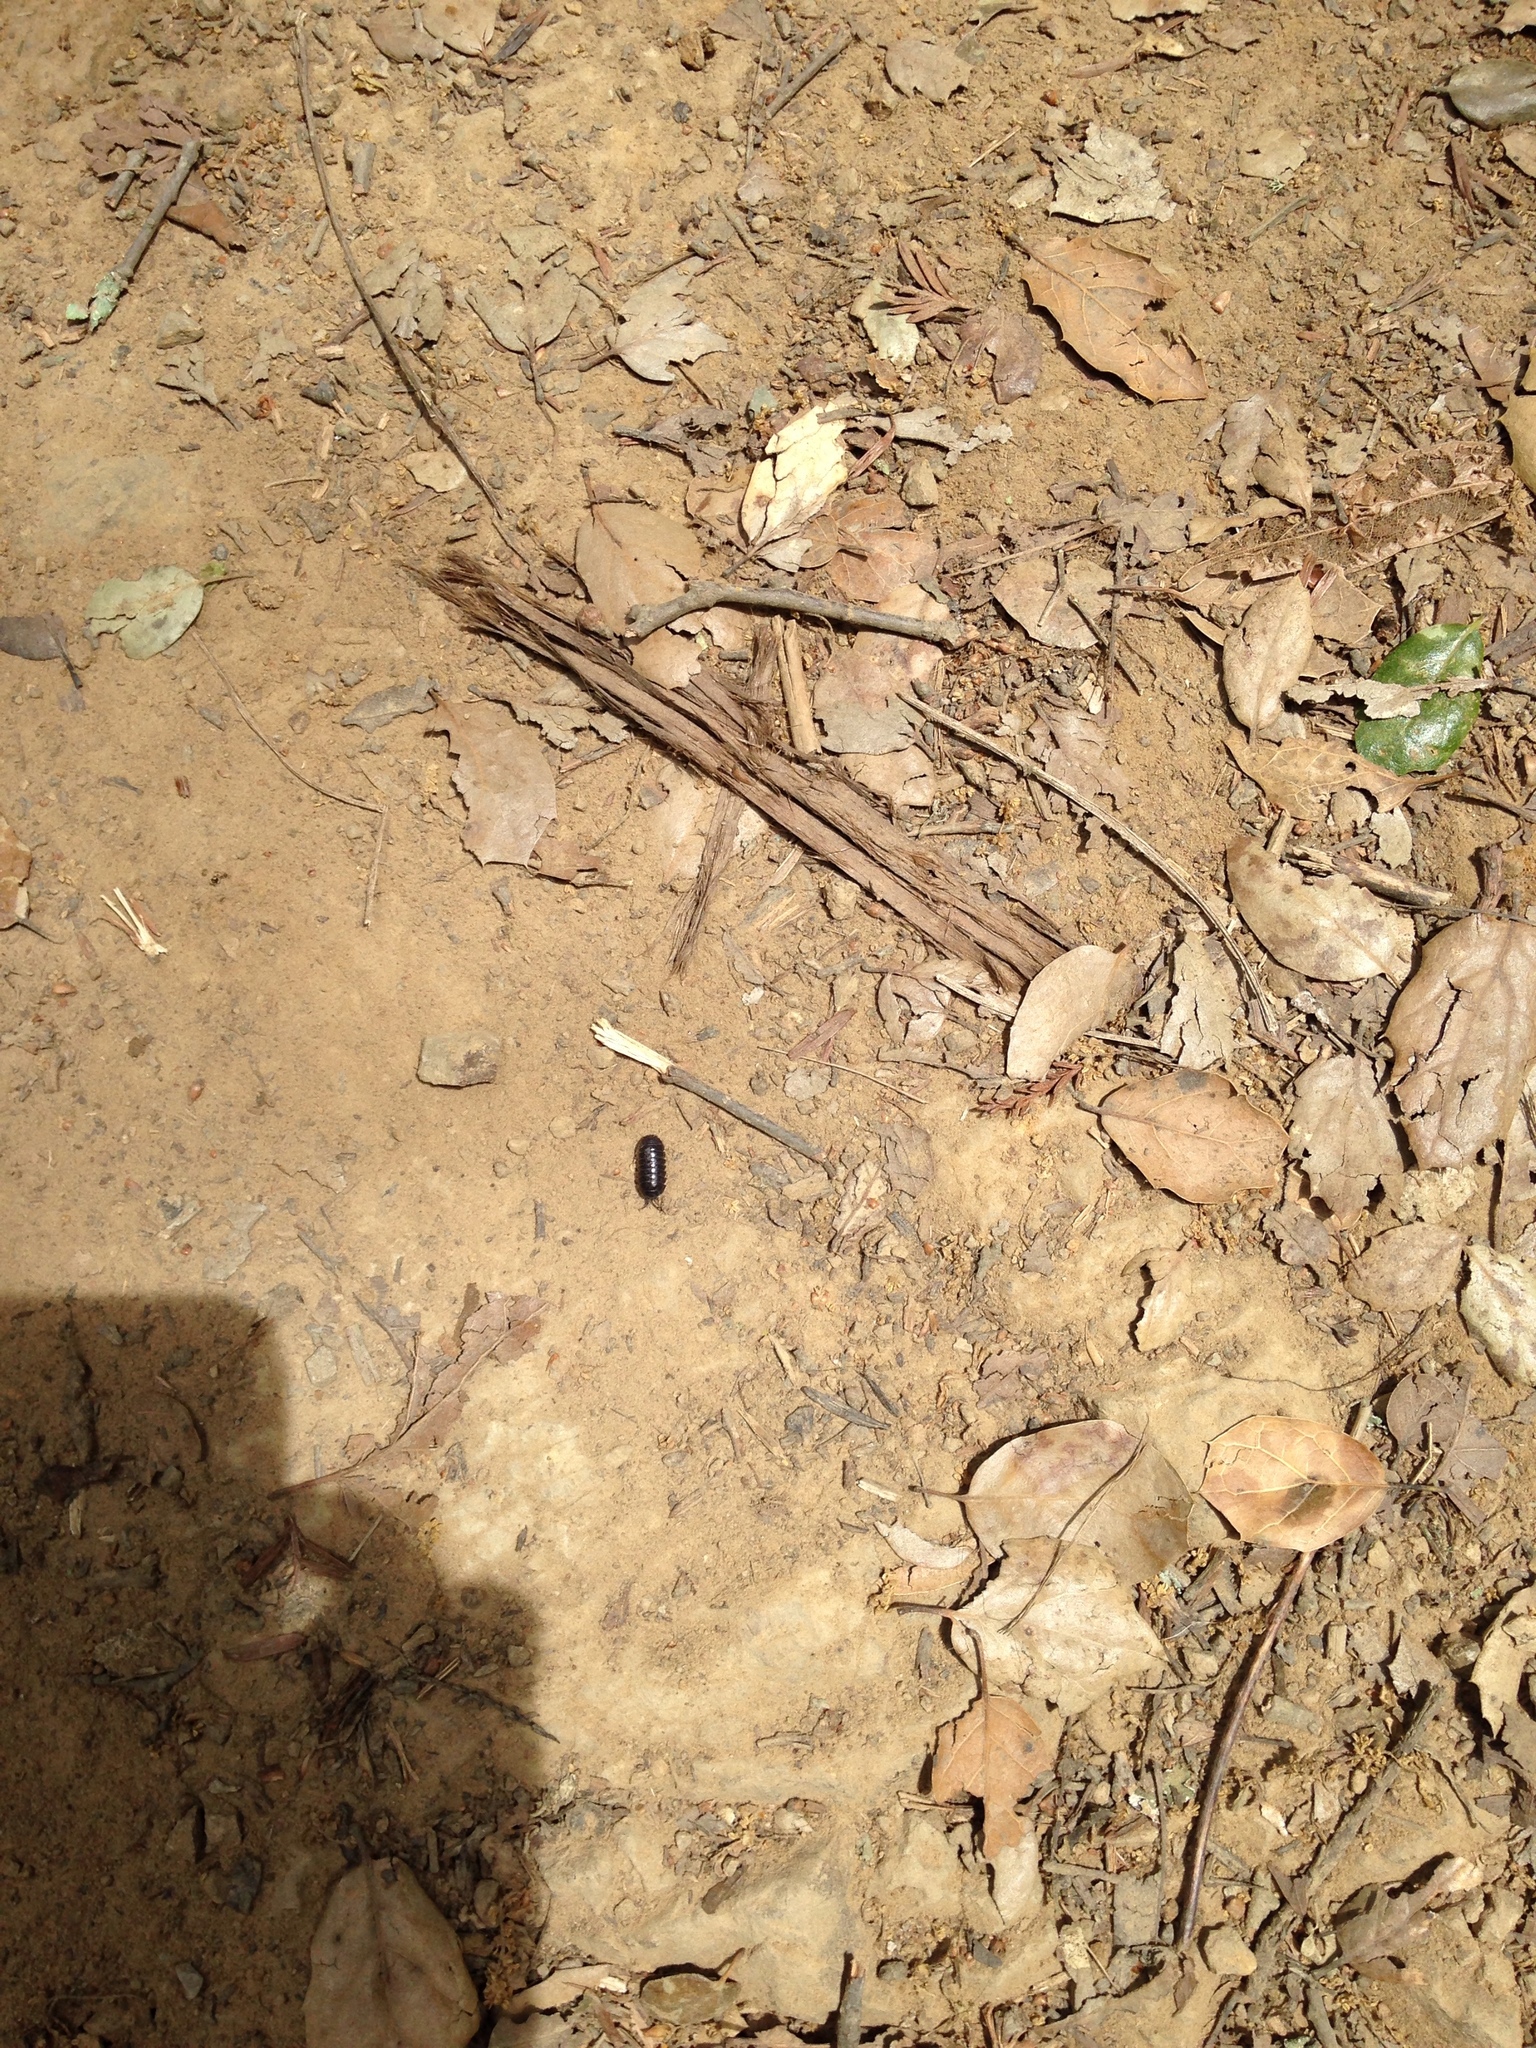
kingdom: Animalia
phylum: Arthropoda
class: Malacostraca
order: Isopoda
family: Armadillidiidae
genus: Armadillidium
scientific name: Armadillidium vulgare
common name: Common pill woodlouse
